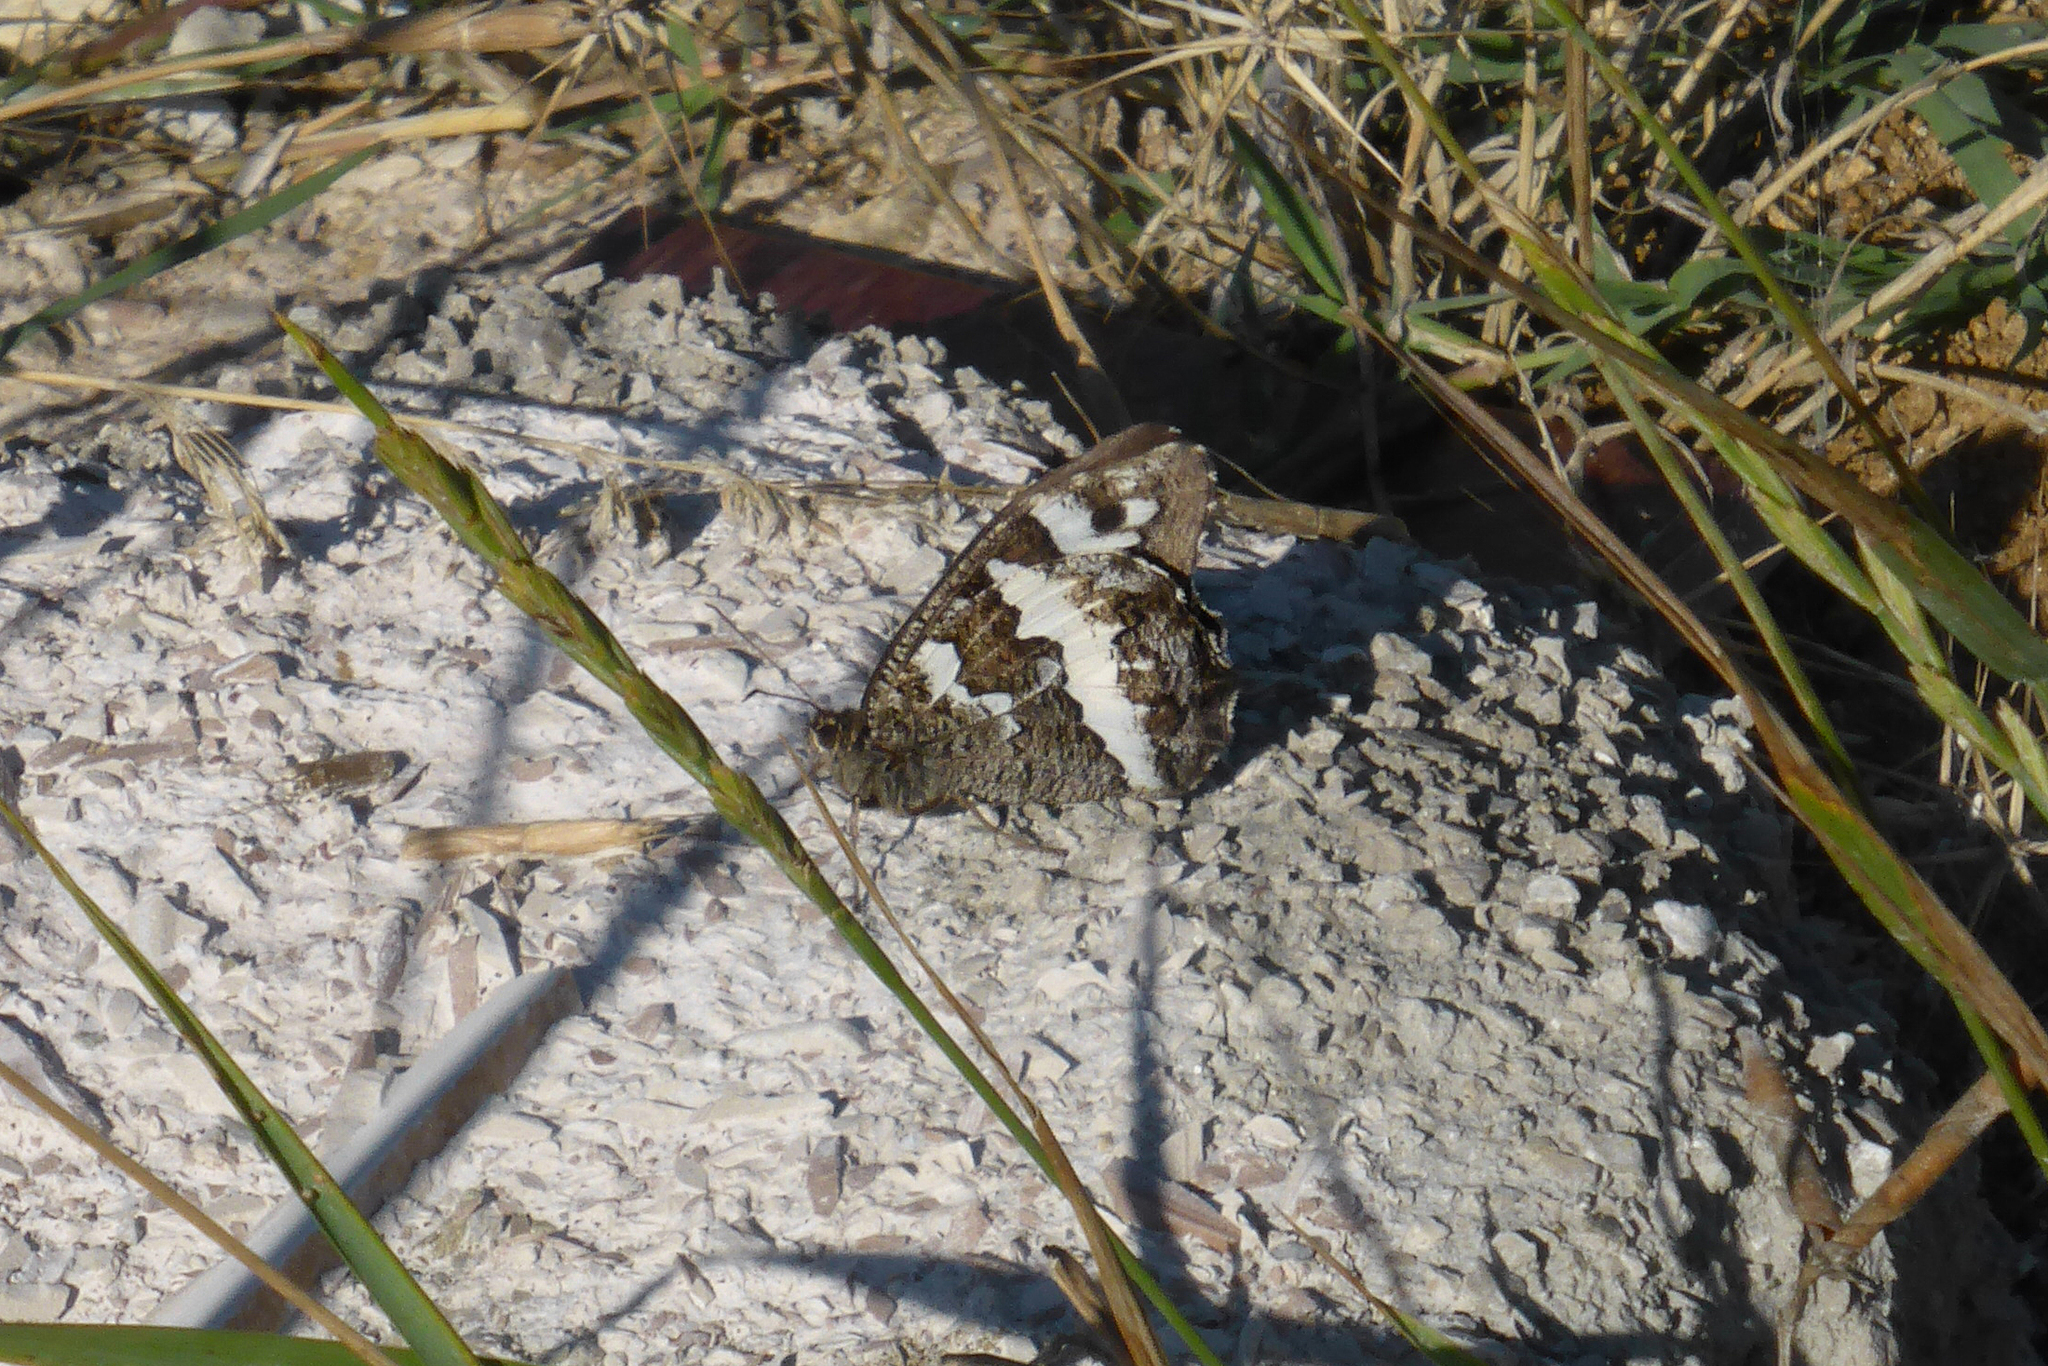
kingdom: Animalia
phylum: Arthropoda
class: Insecta
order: Lepidoptera
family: Lycaenidae
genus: Loweia
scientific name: Loweia tityrus
